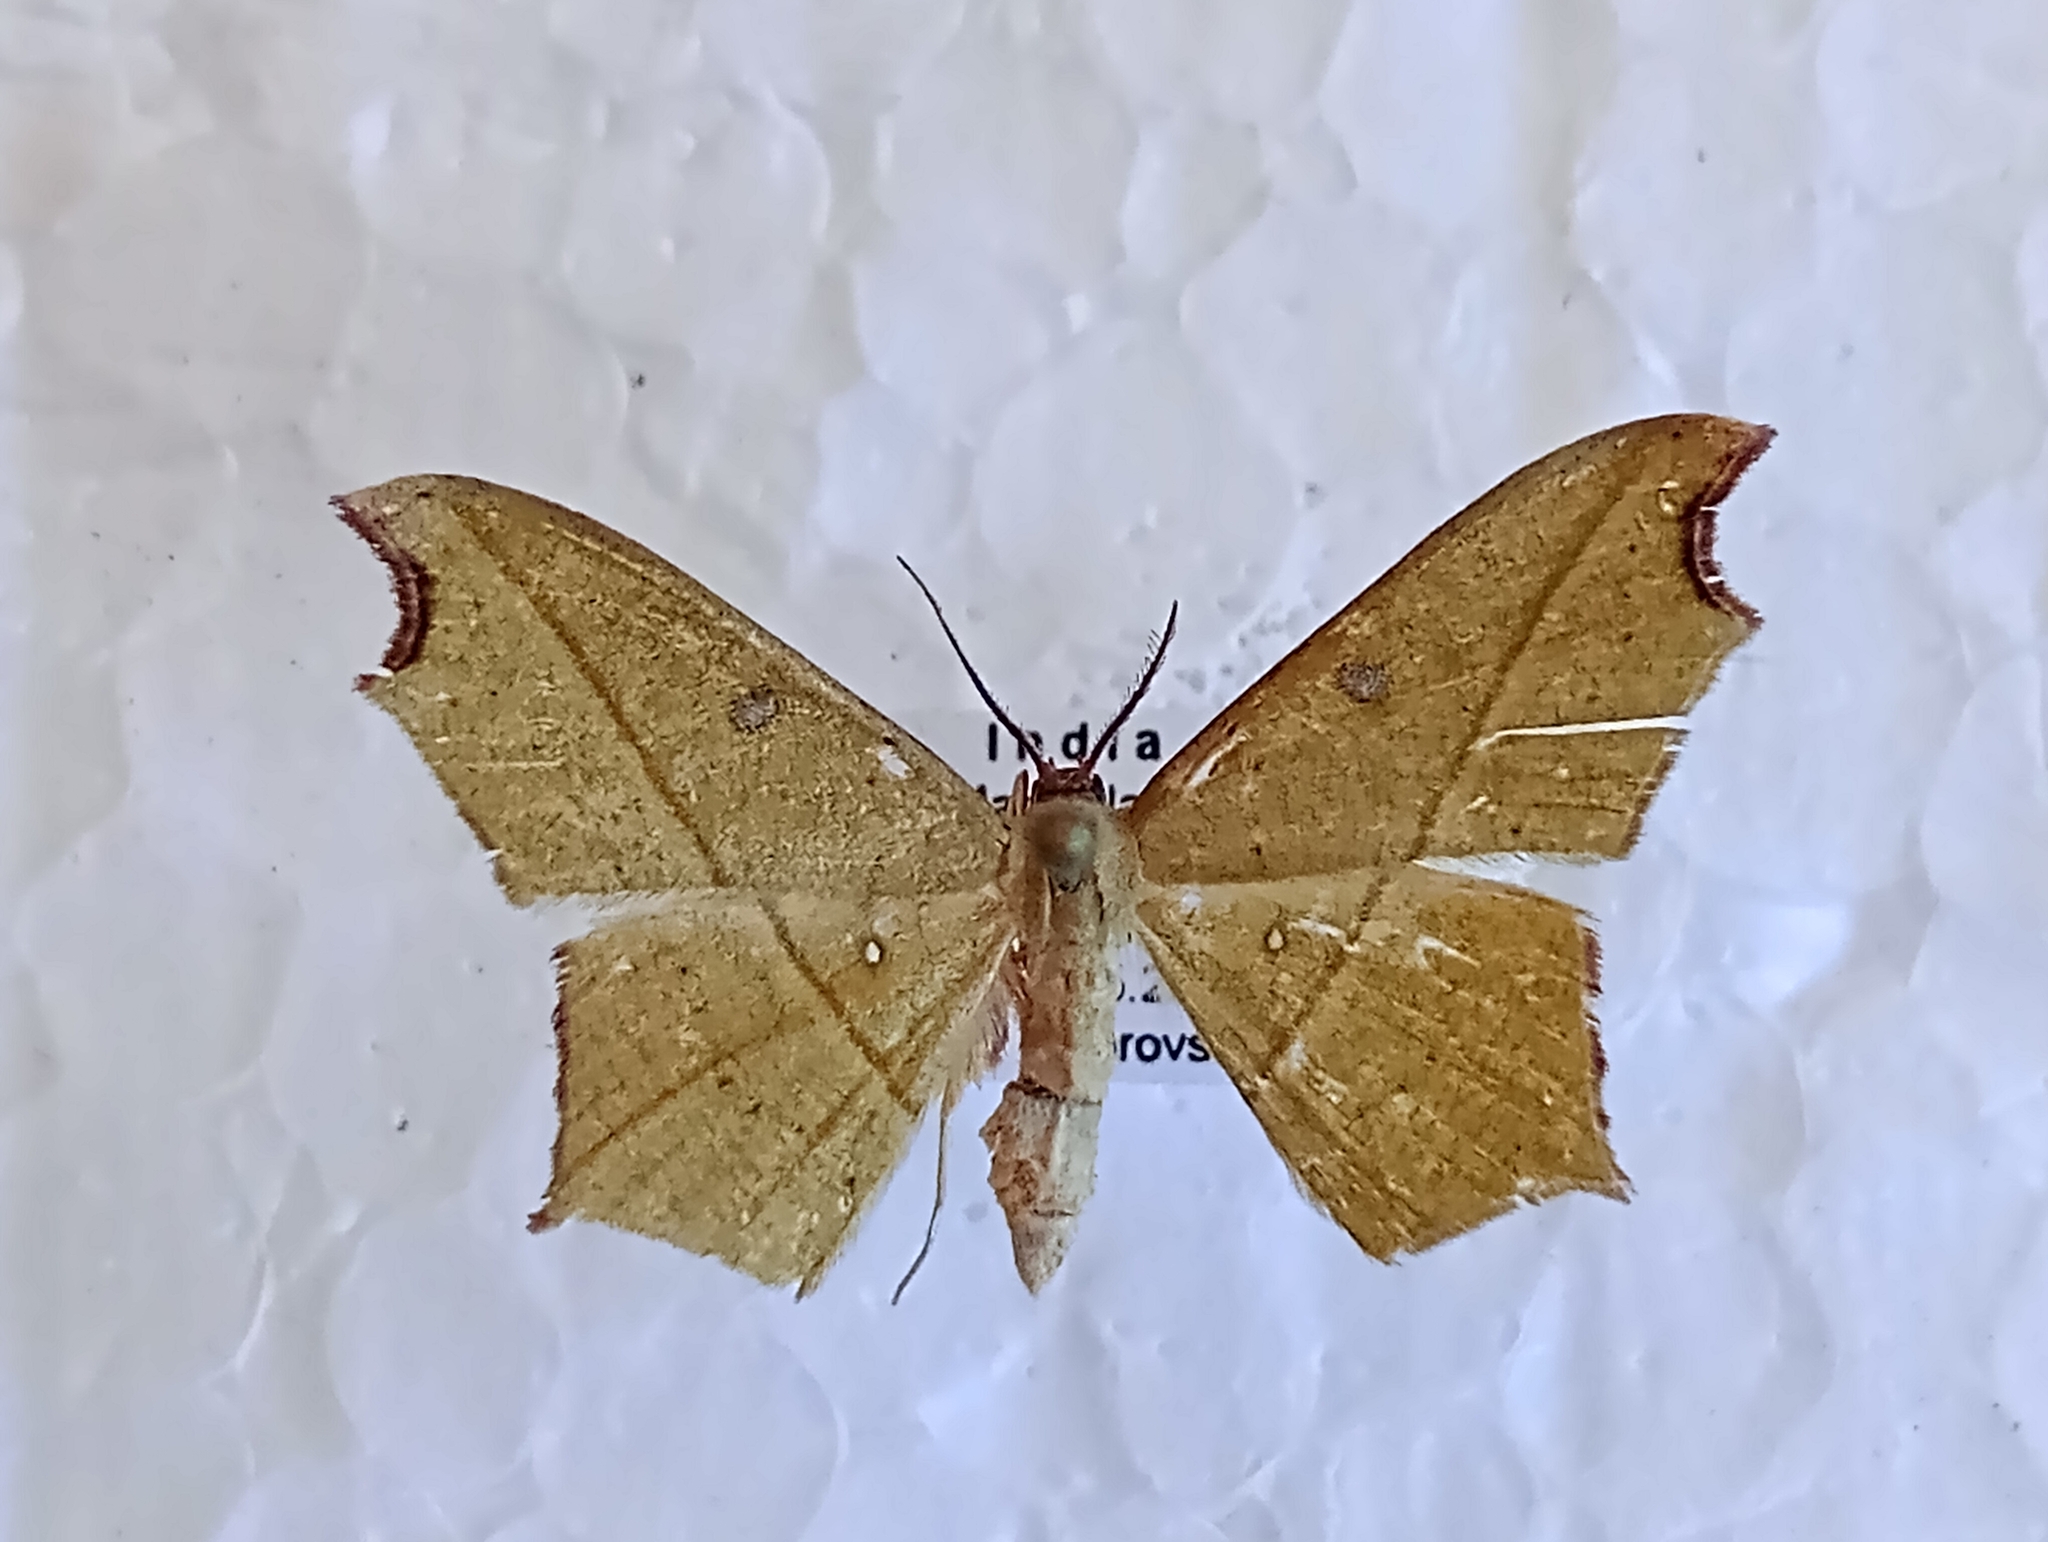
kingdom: Animalia
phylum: Arthropoda
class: Insecta
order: Lepidoptera
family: Geometridae
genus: Traminda
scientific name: Traminda aventiaria
